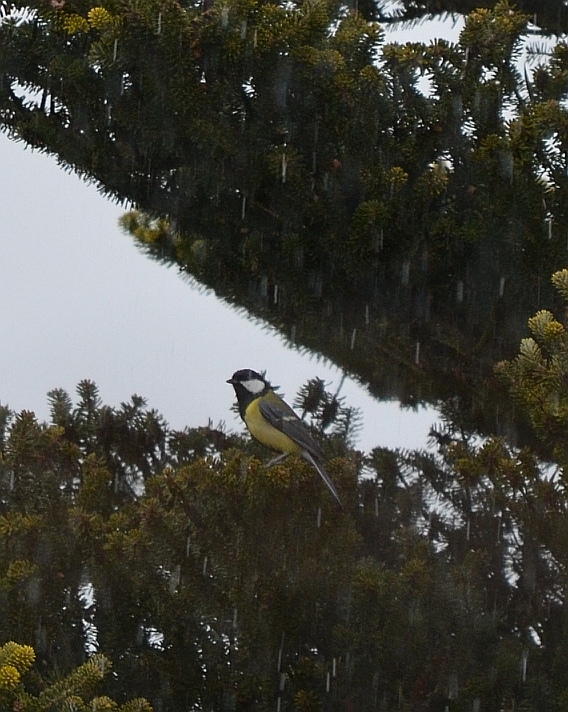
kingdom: Animalia
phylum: Chordata
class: Aves
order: Passeriformes
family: Paridae
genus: Parus
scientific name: Parus major
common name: Great tit
